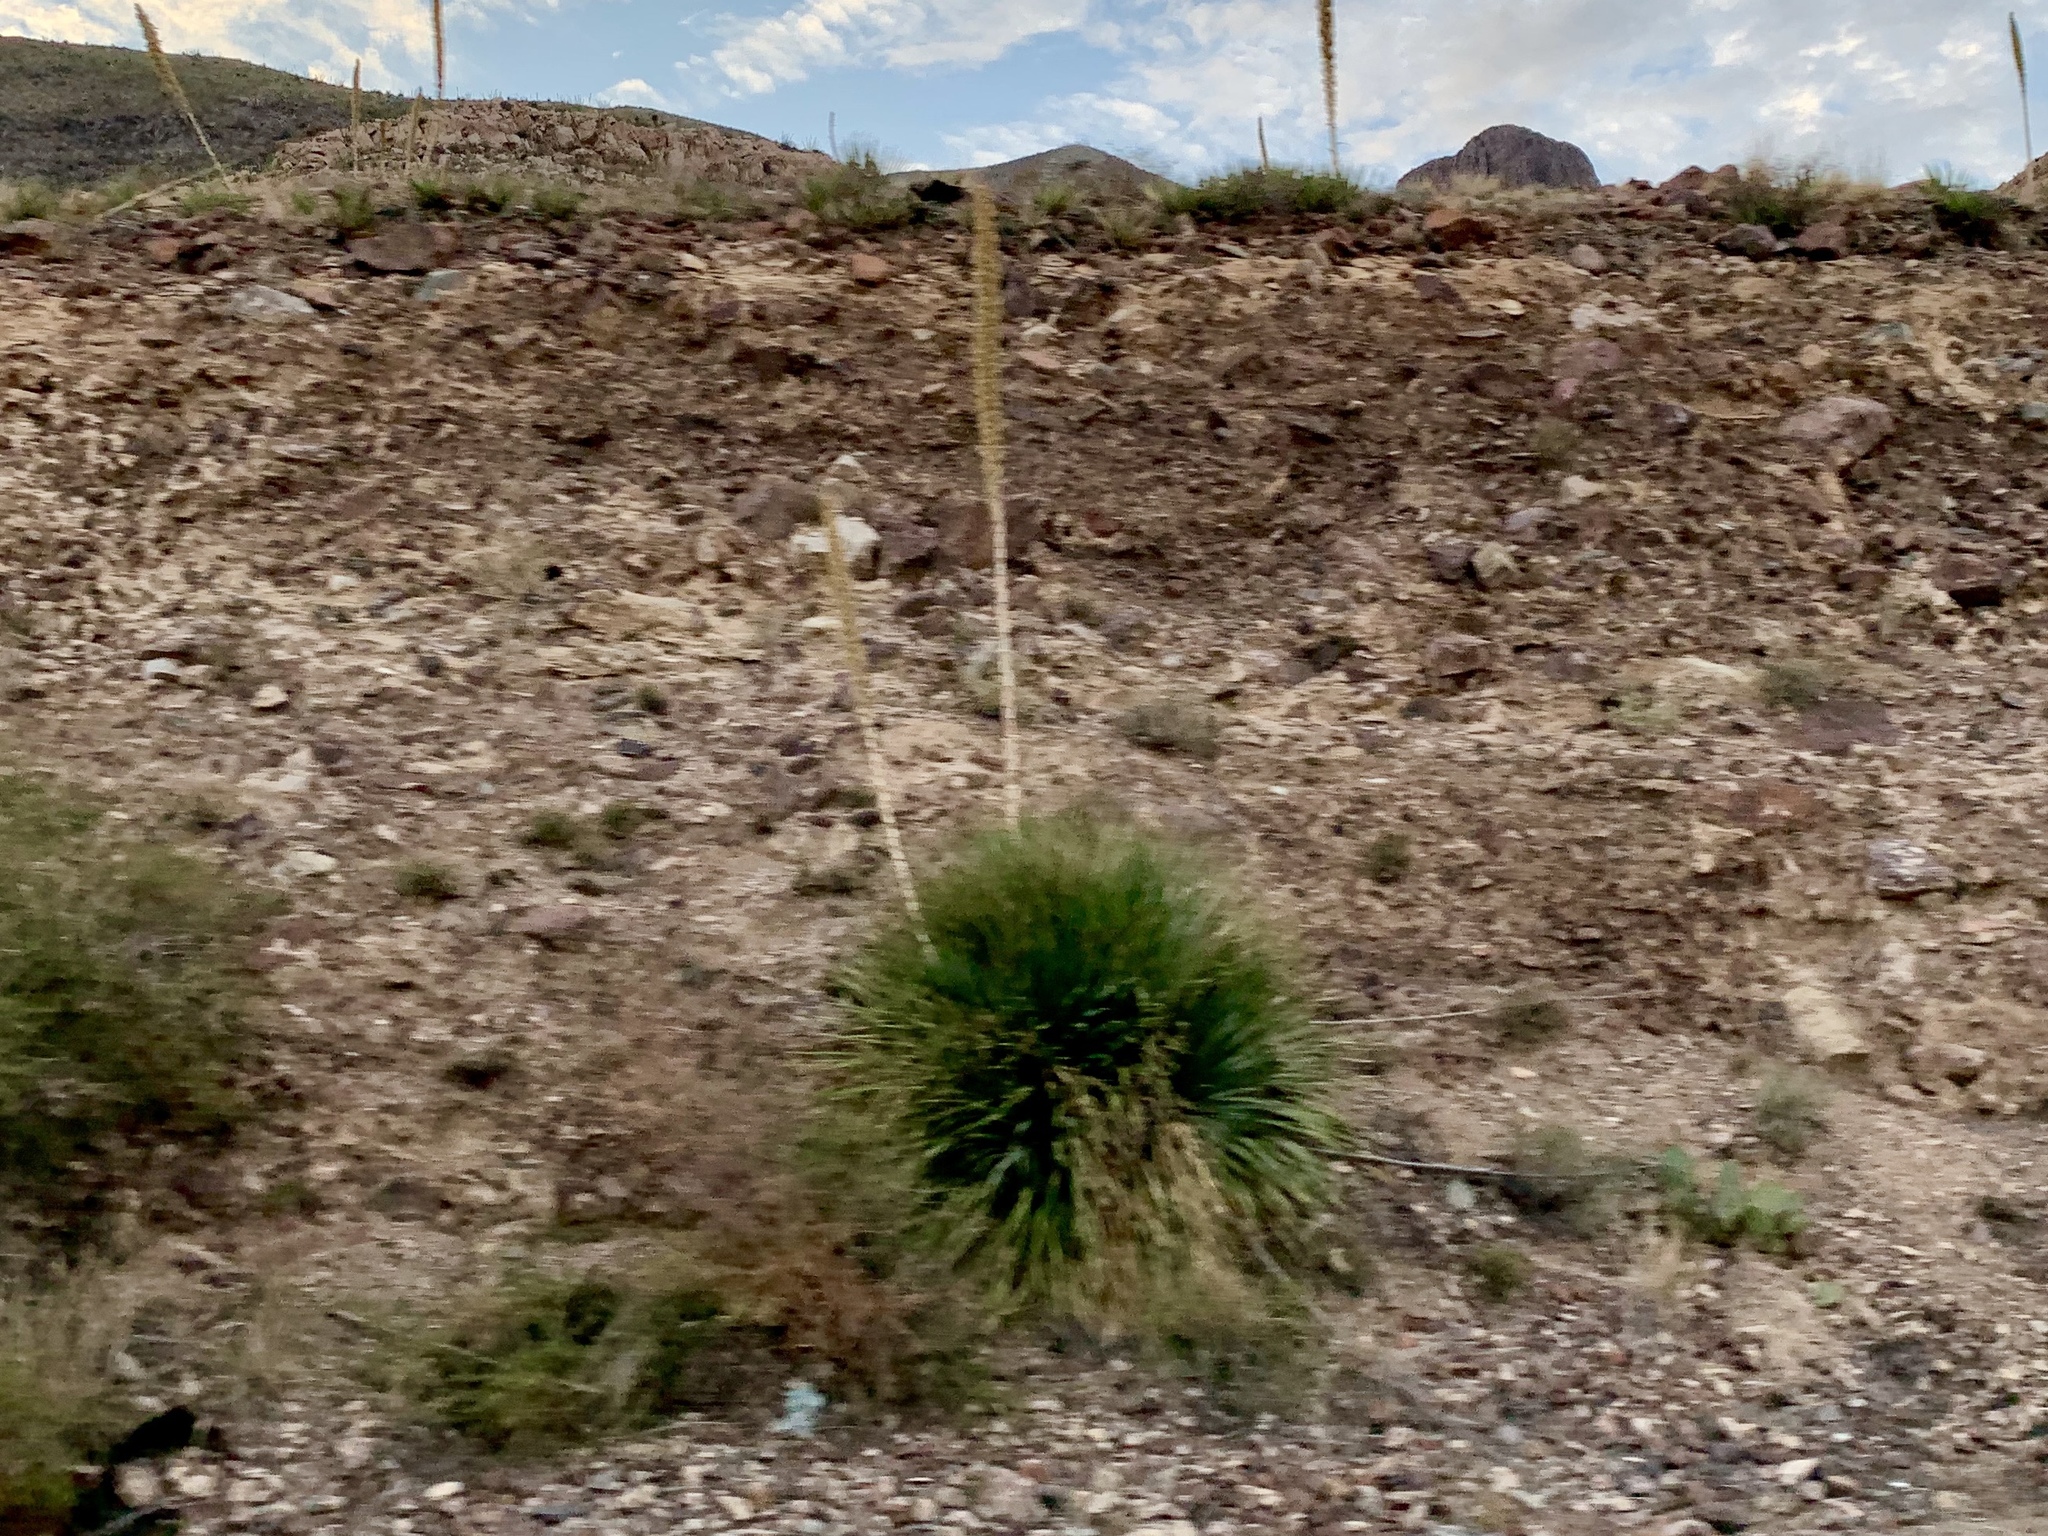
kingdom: Plantae
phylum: Tracheophyta
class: Liliopsida
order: Asparagales
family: Asparagaceae
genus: Dasylirion
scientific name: Dasylirion wheeleri
